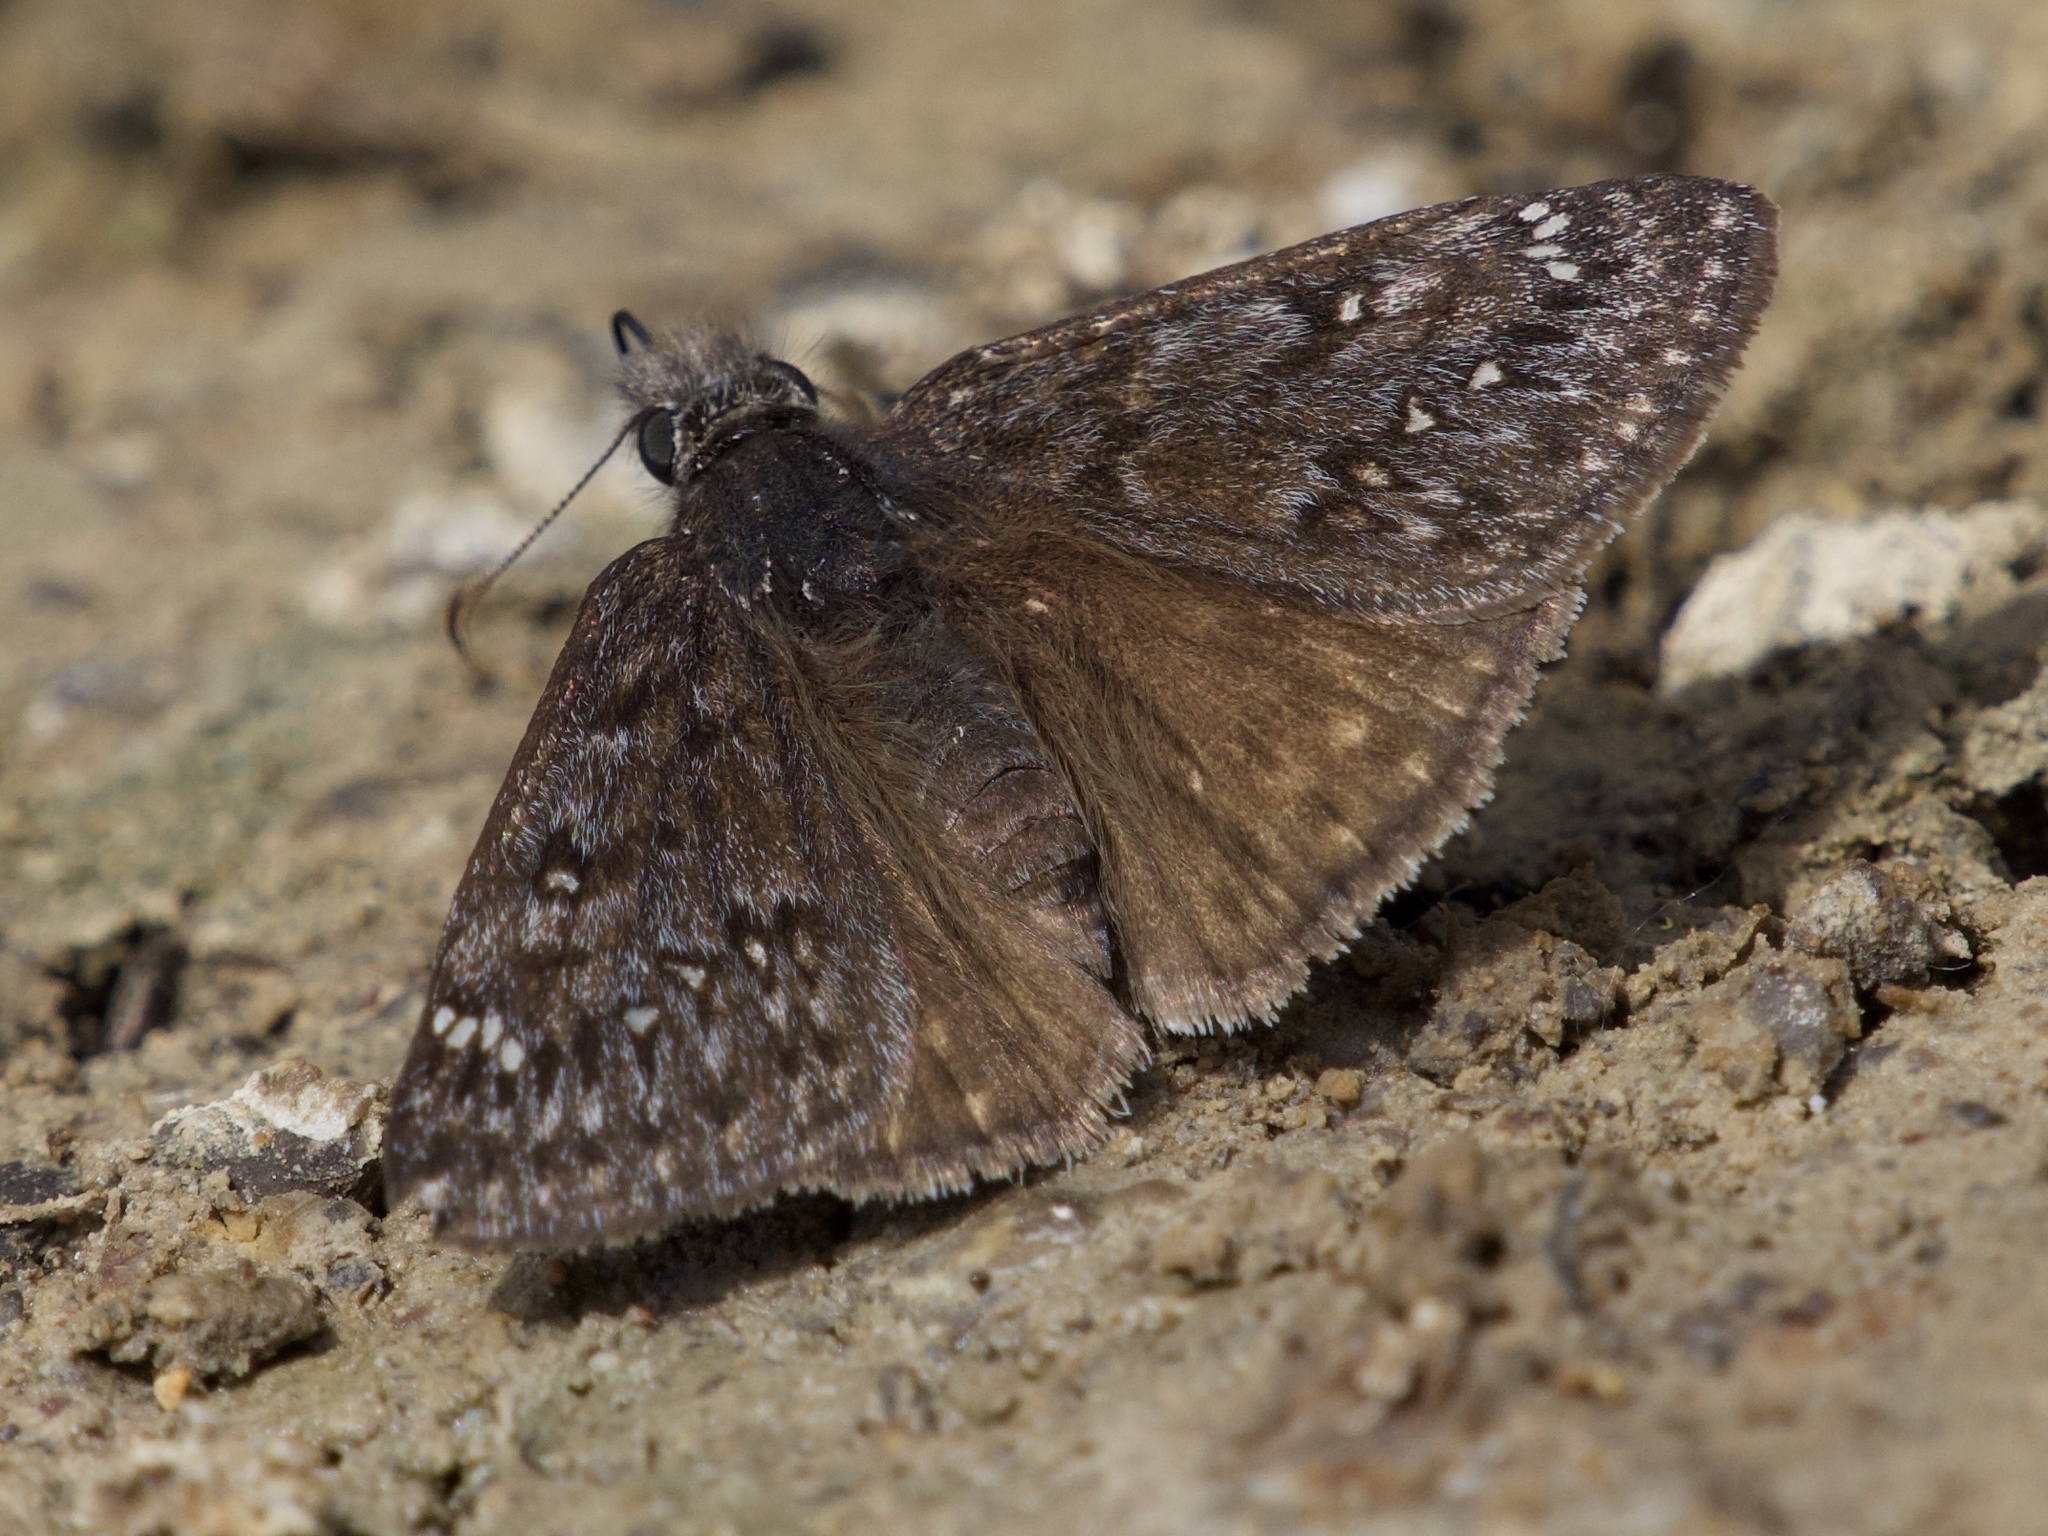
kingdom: Animalia
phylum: Arthropoda
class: Insecta
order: Lepidoptera
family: Hesperiidae
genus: Erynnis
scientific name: Erynnis propertius
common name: Propertius duskywing
